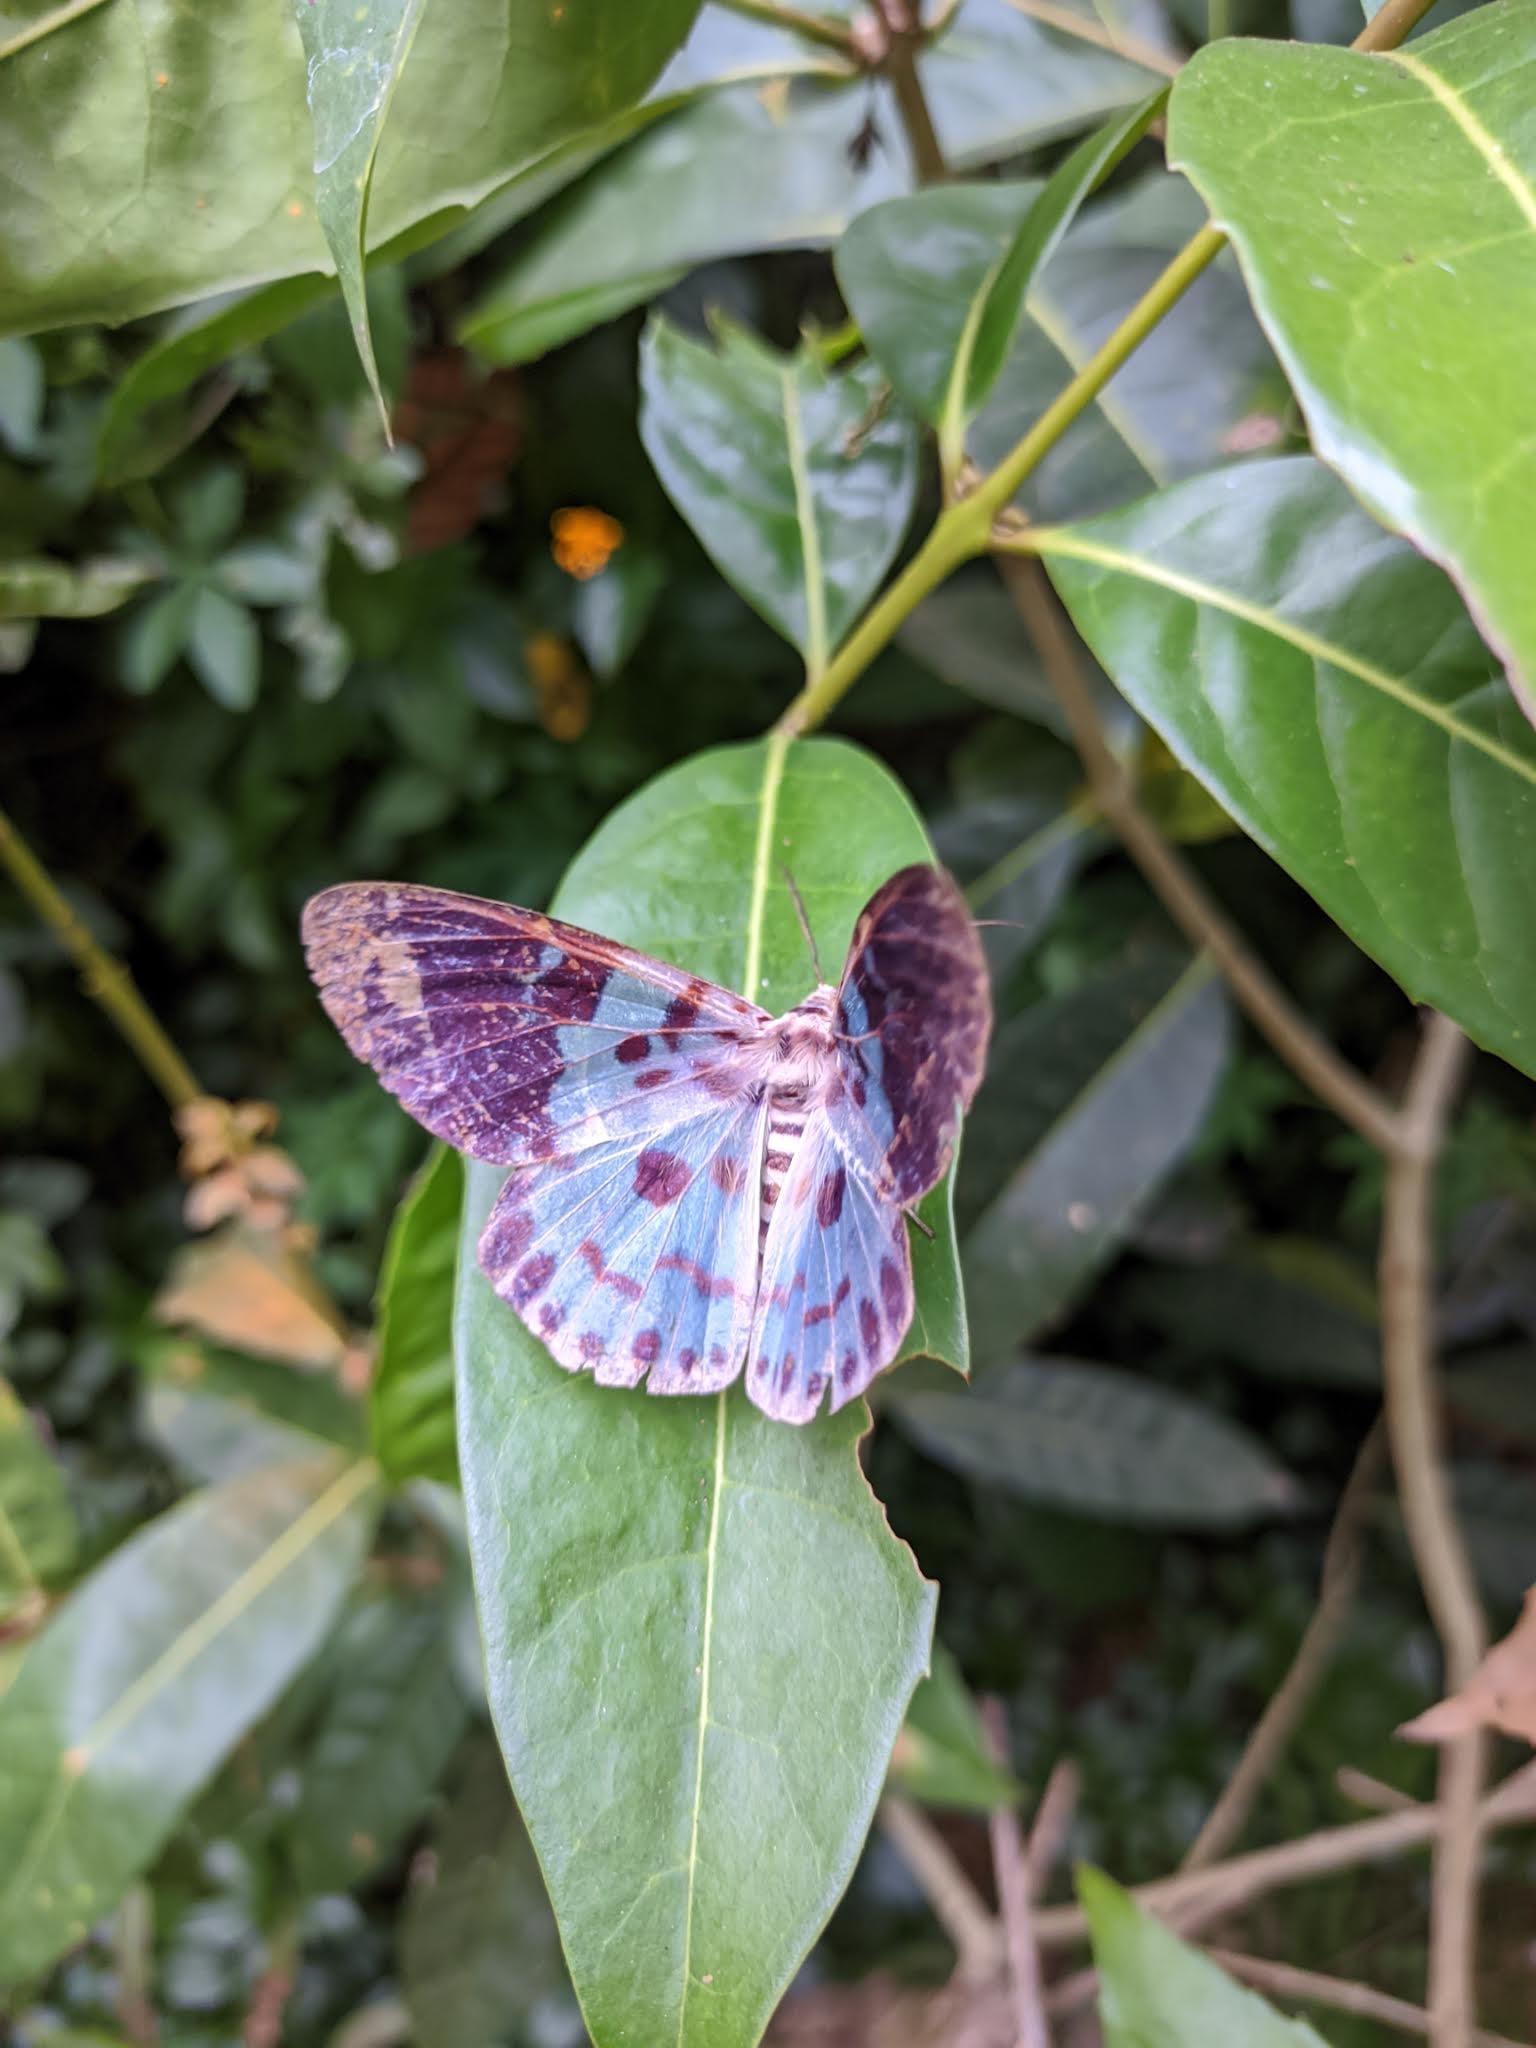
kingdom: Animalia
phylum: Arthropoda
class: Insecta
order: Lepidoptera
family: Geometridae
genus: Dysphania
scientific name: Dysphania percota
